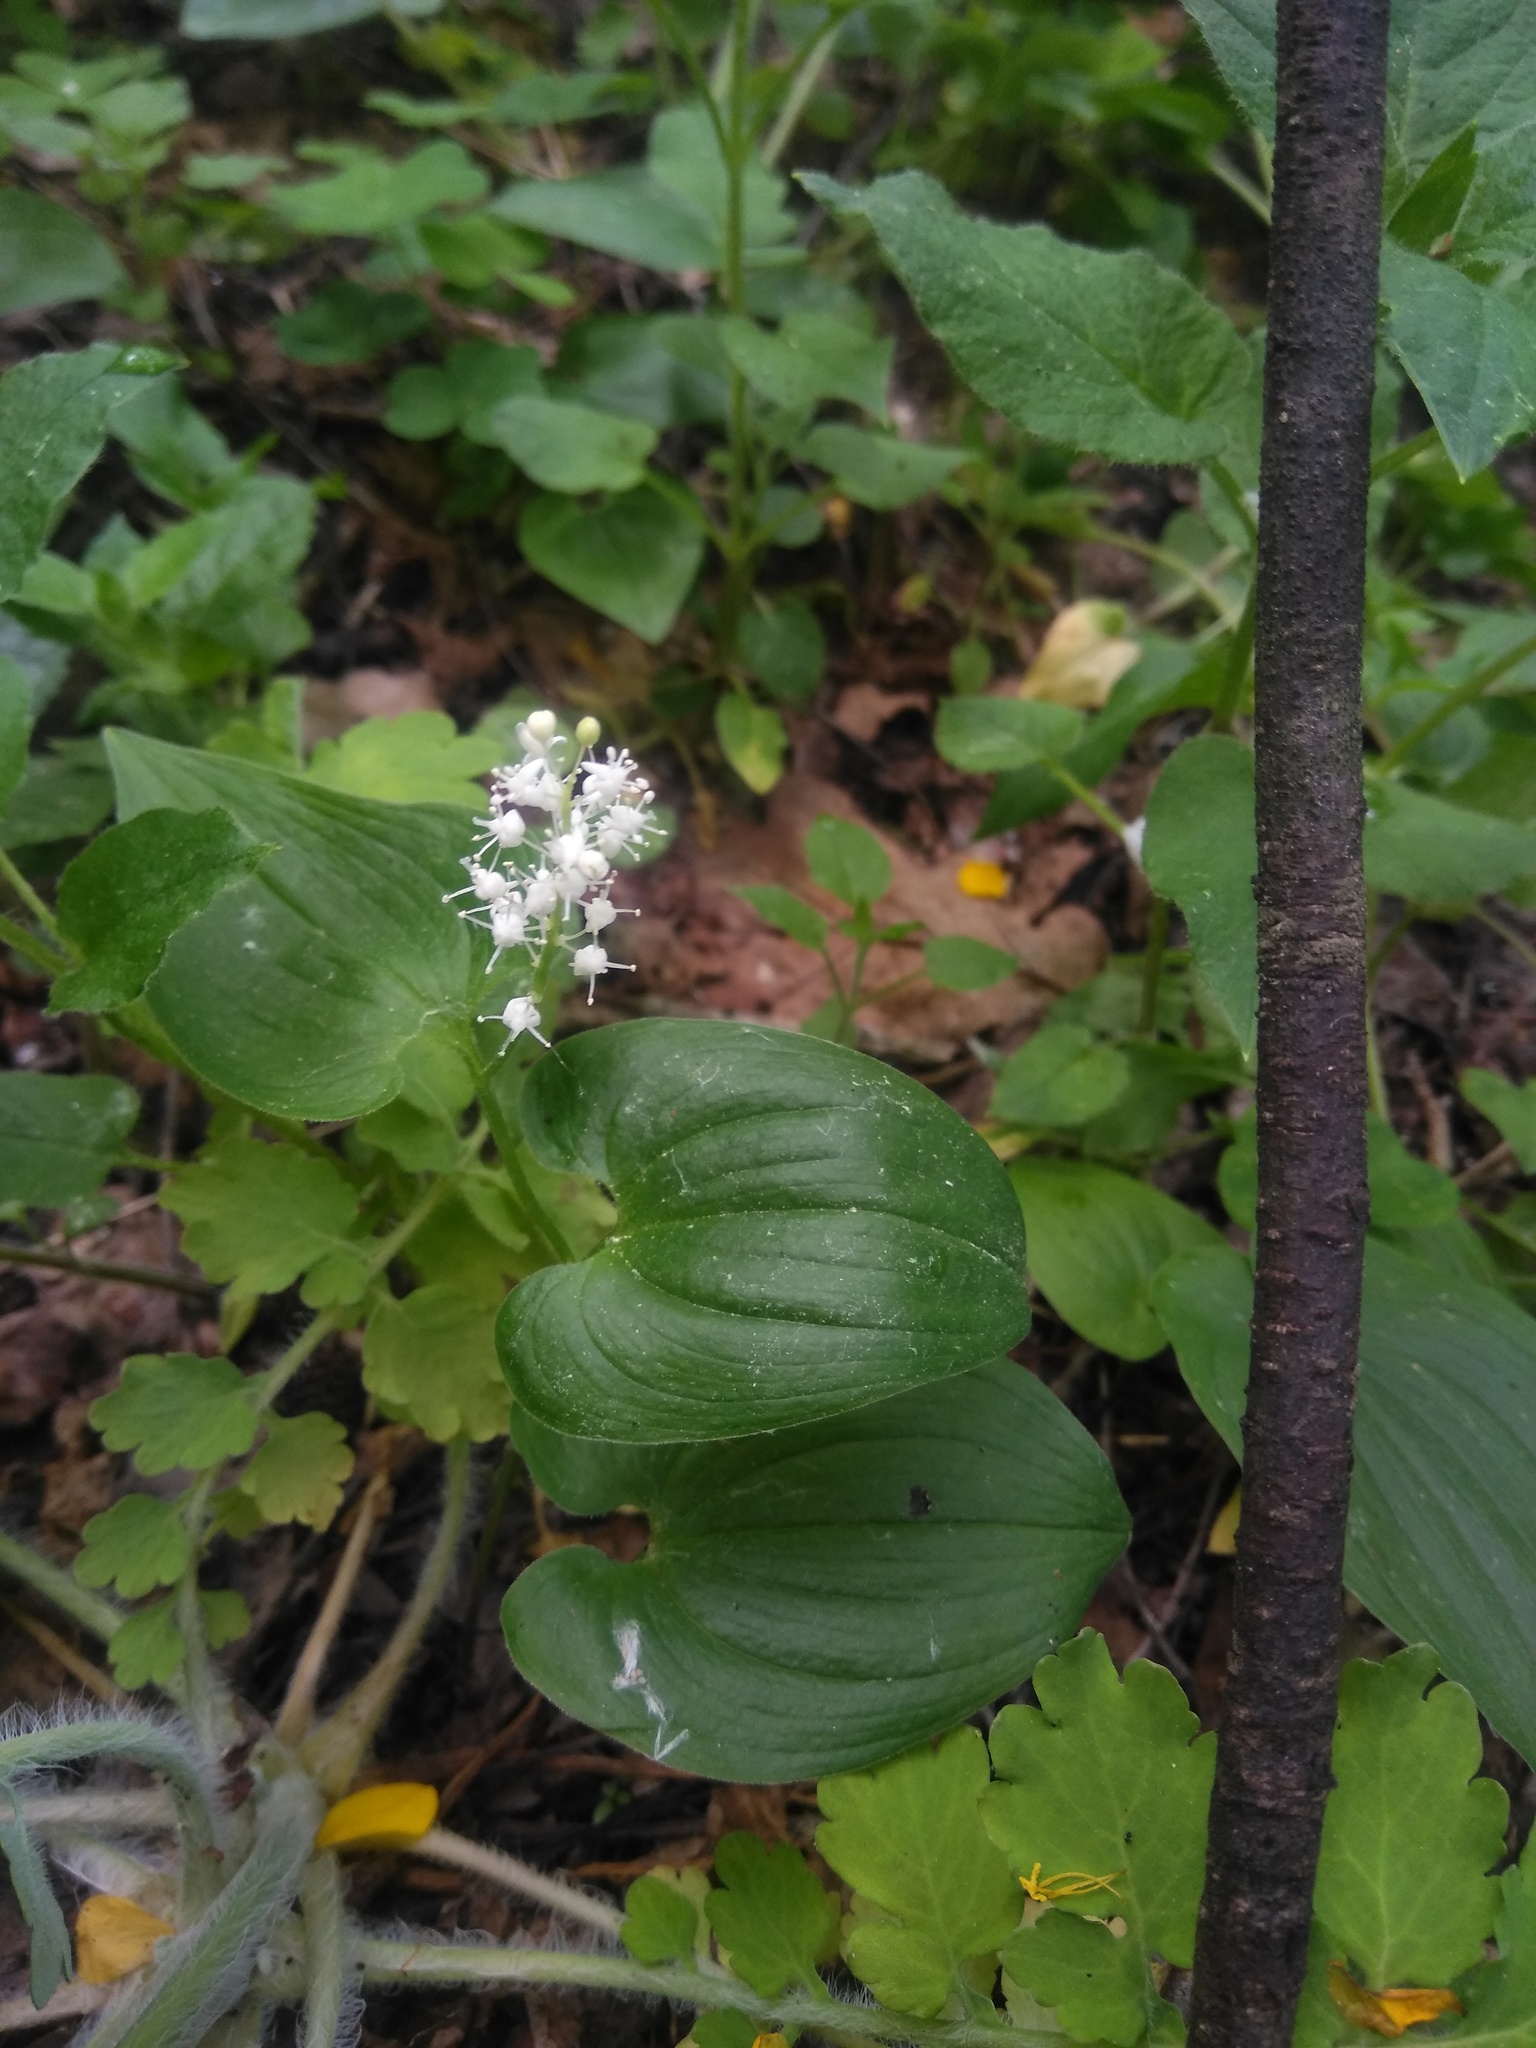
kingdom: Plantae
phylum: Tracheophyta
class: Liliopsida
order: Asparagales
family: Asparagaceae
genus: Maianthemum
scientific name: Maianthemum bifolium
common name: May lily
